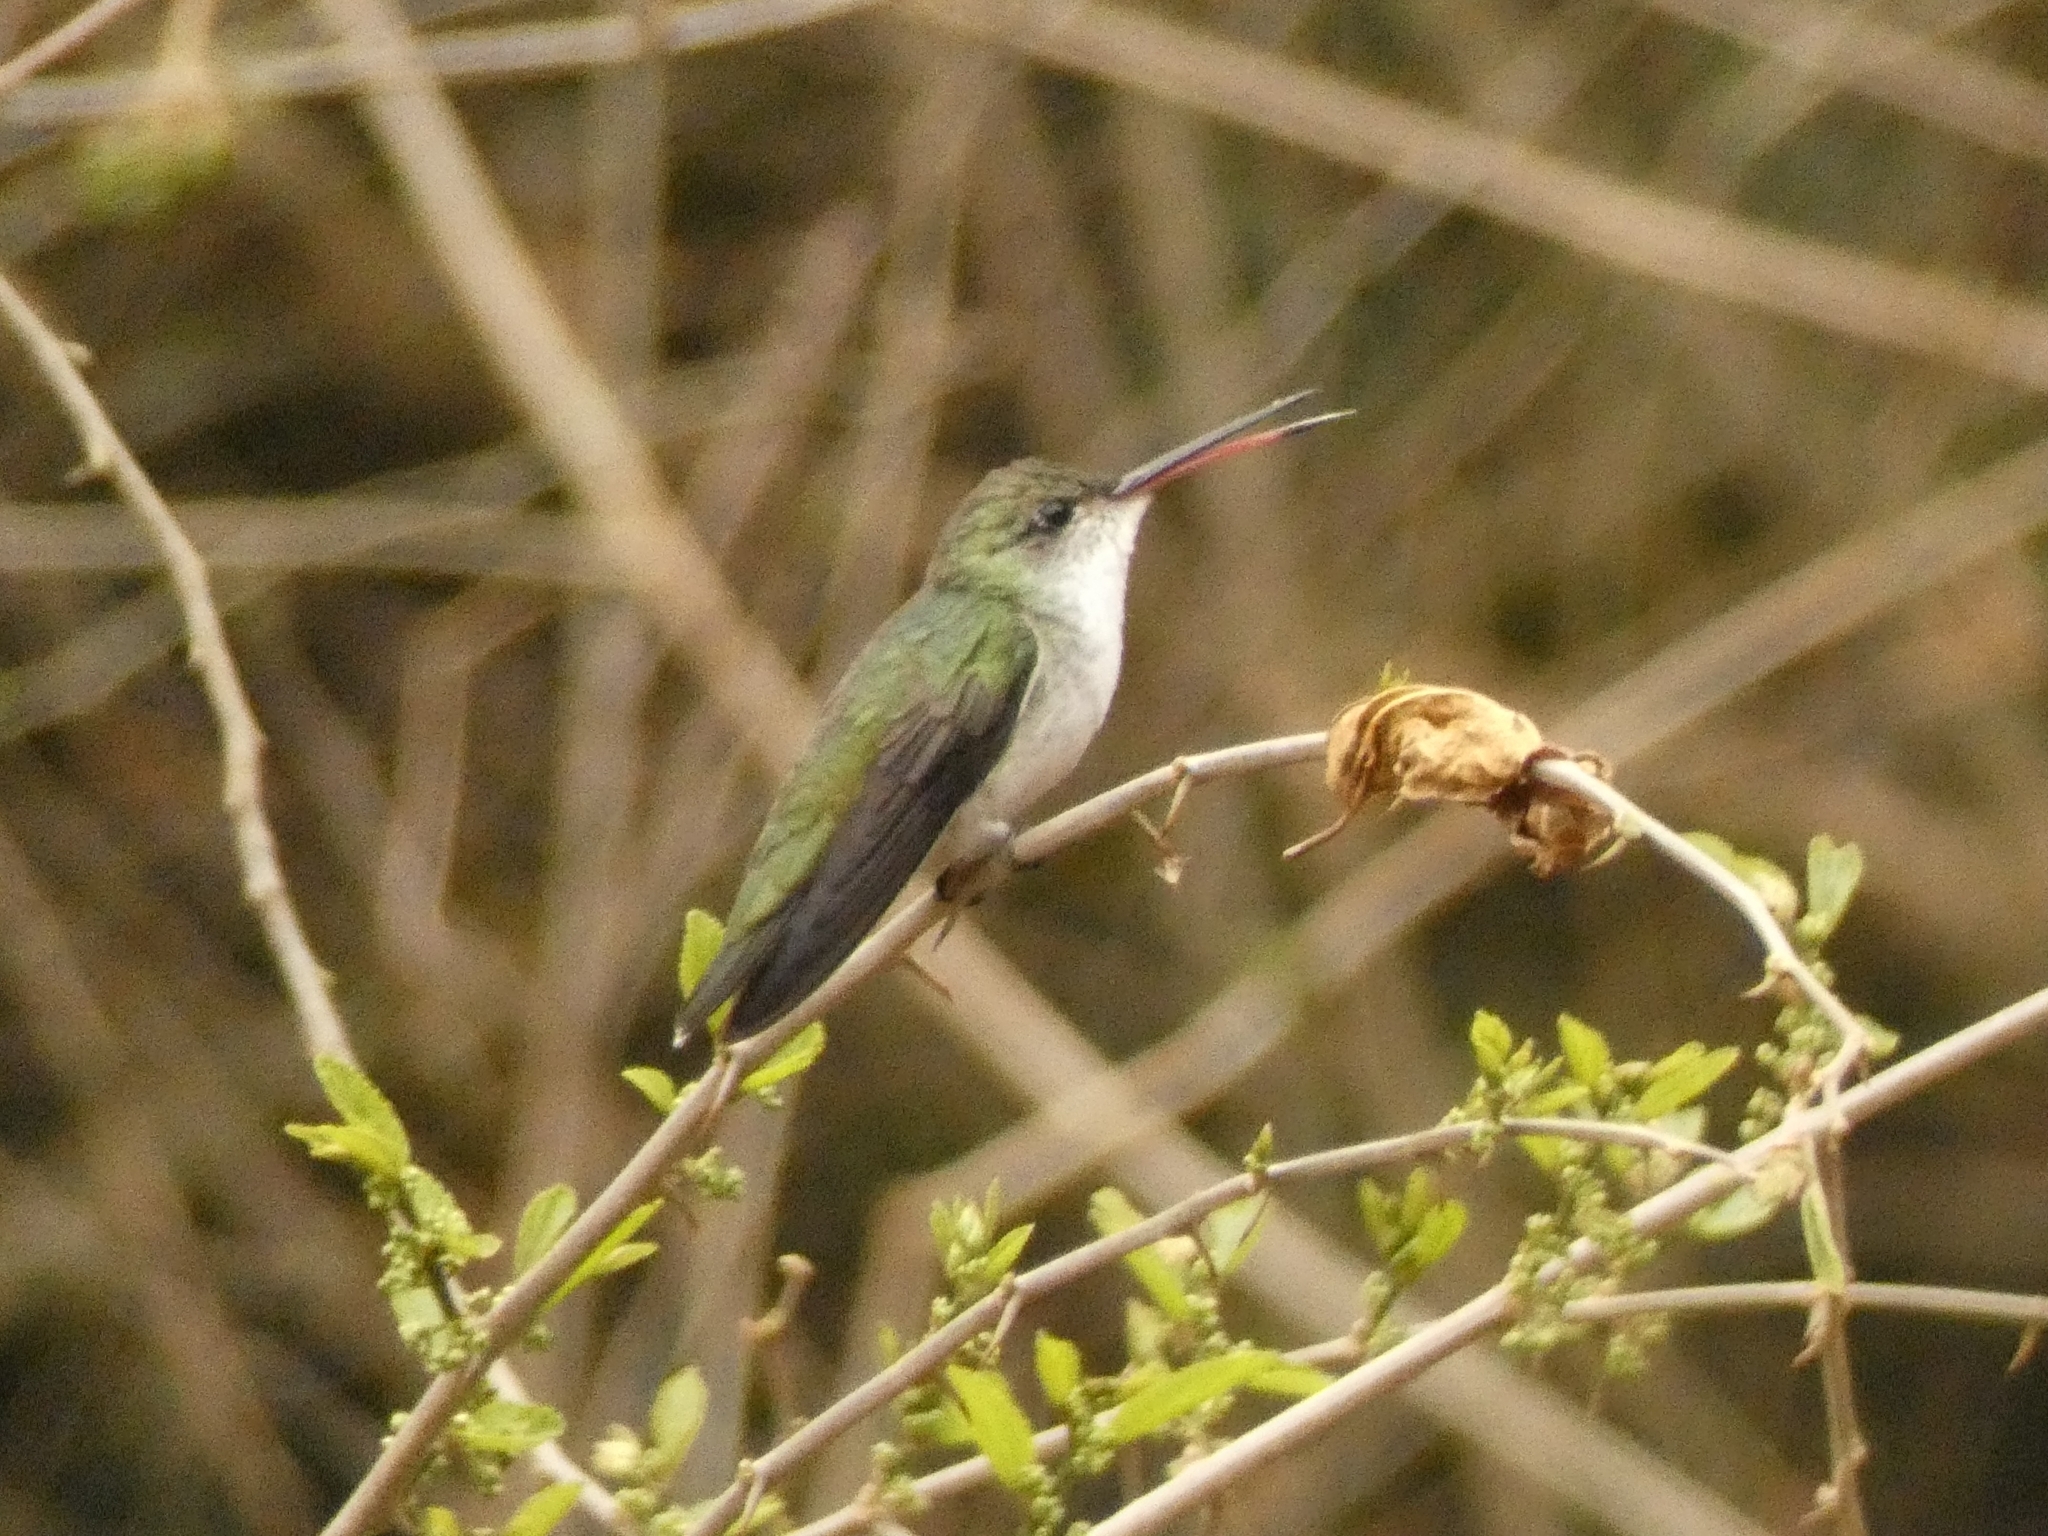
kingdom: Animalia
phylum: Chordata
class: Aves
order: Apodiformes
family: Trochilidae
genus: Elliotomyia
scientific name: Elliotomyia chionogaster
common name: White-bellied hummingbird
